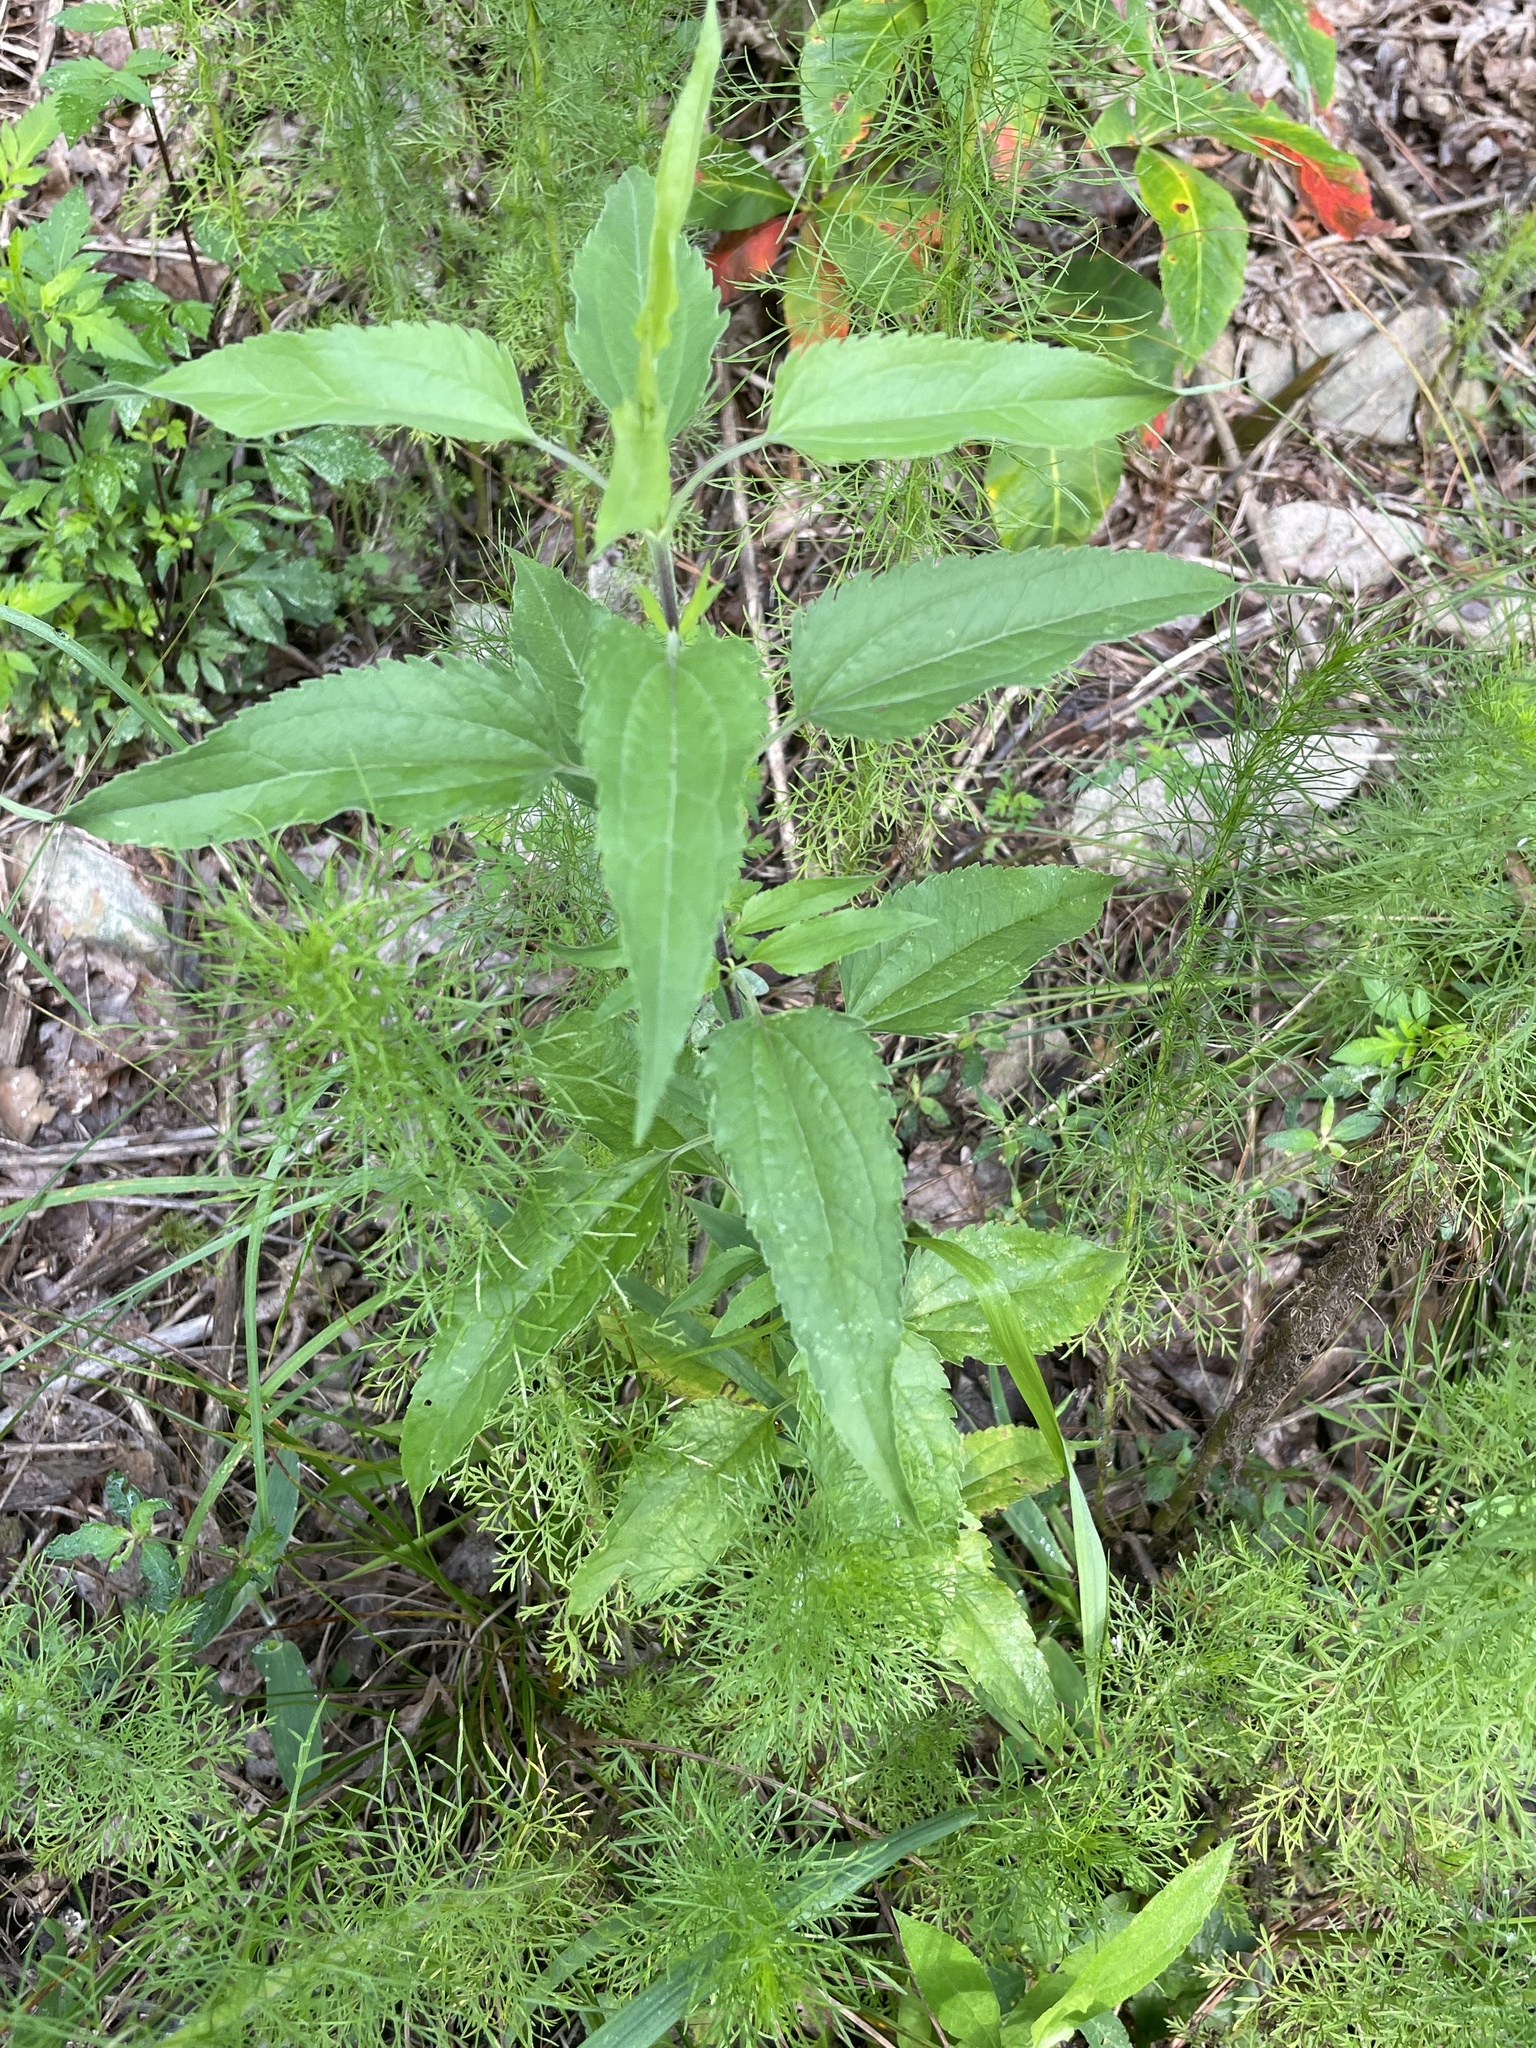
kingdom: Plantae
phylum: Tracheophyta
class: Magnoliopsida
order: Asterales
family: Asteraceae
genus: Eupatorium
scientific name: Eupatorium serotinum
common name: Late boneset
